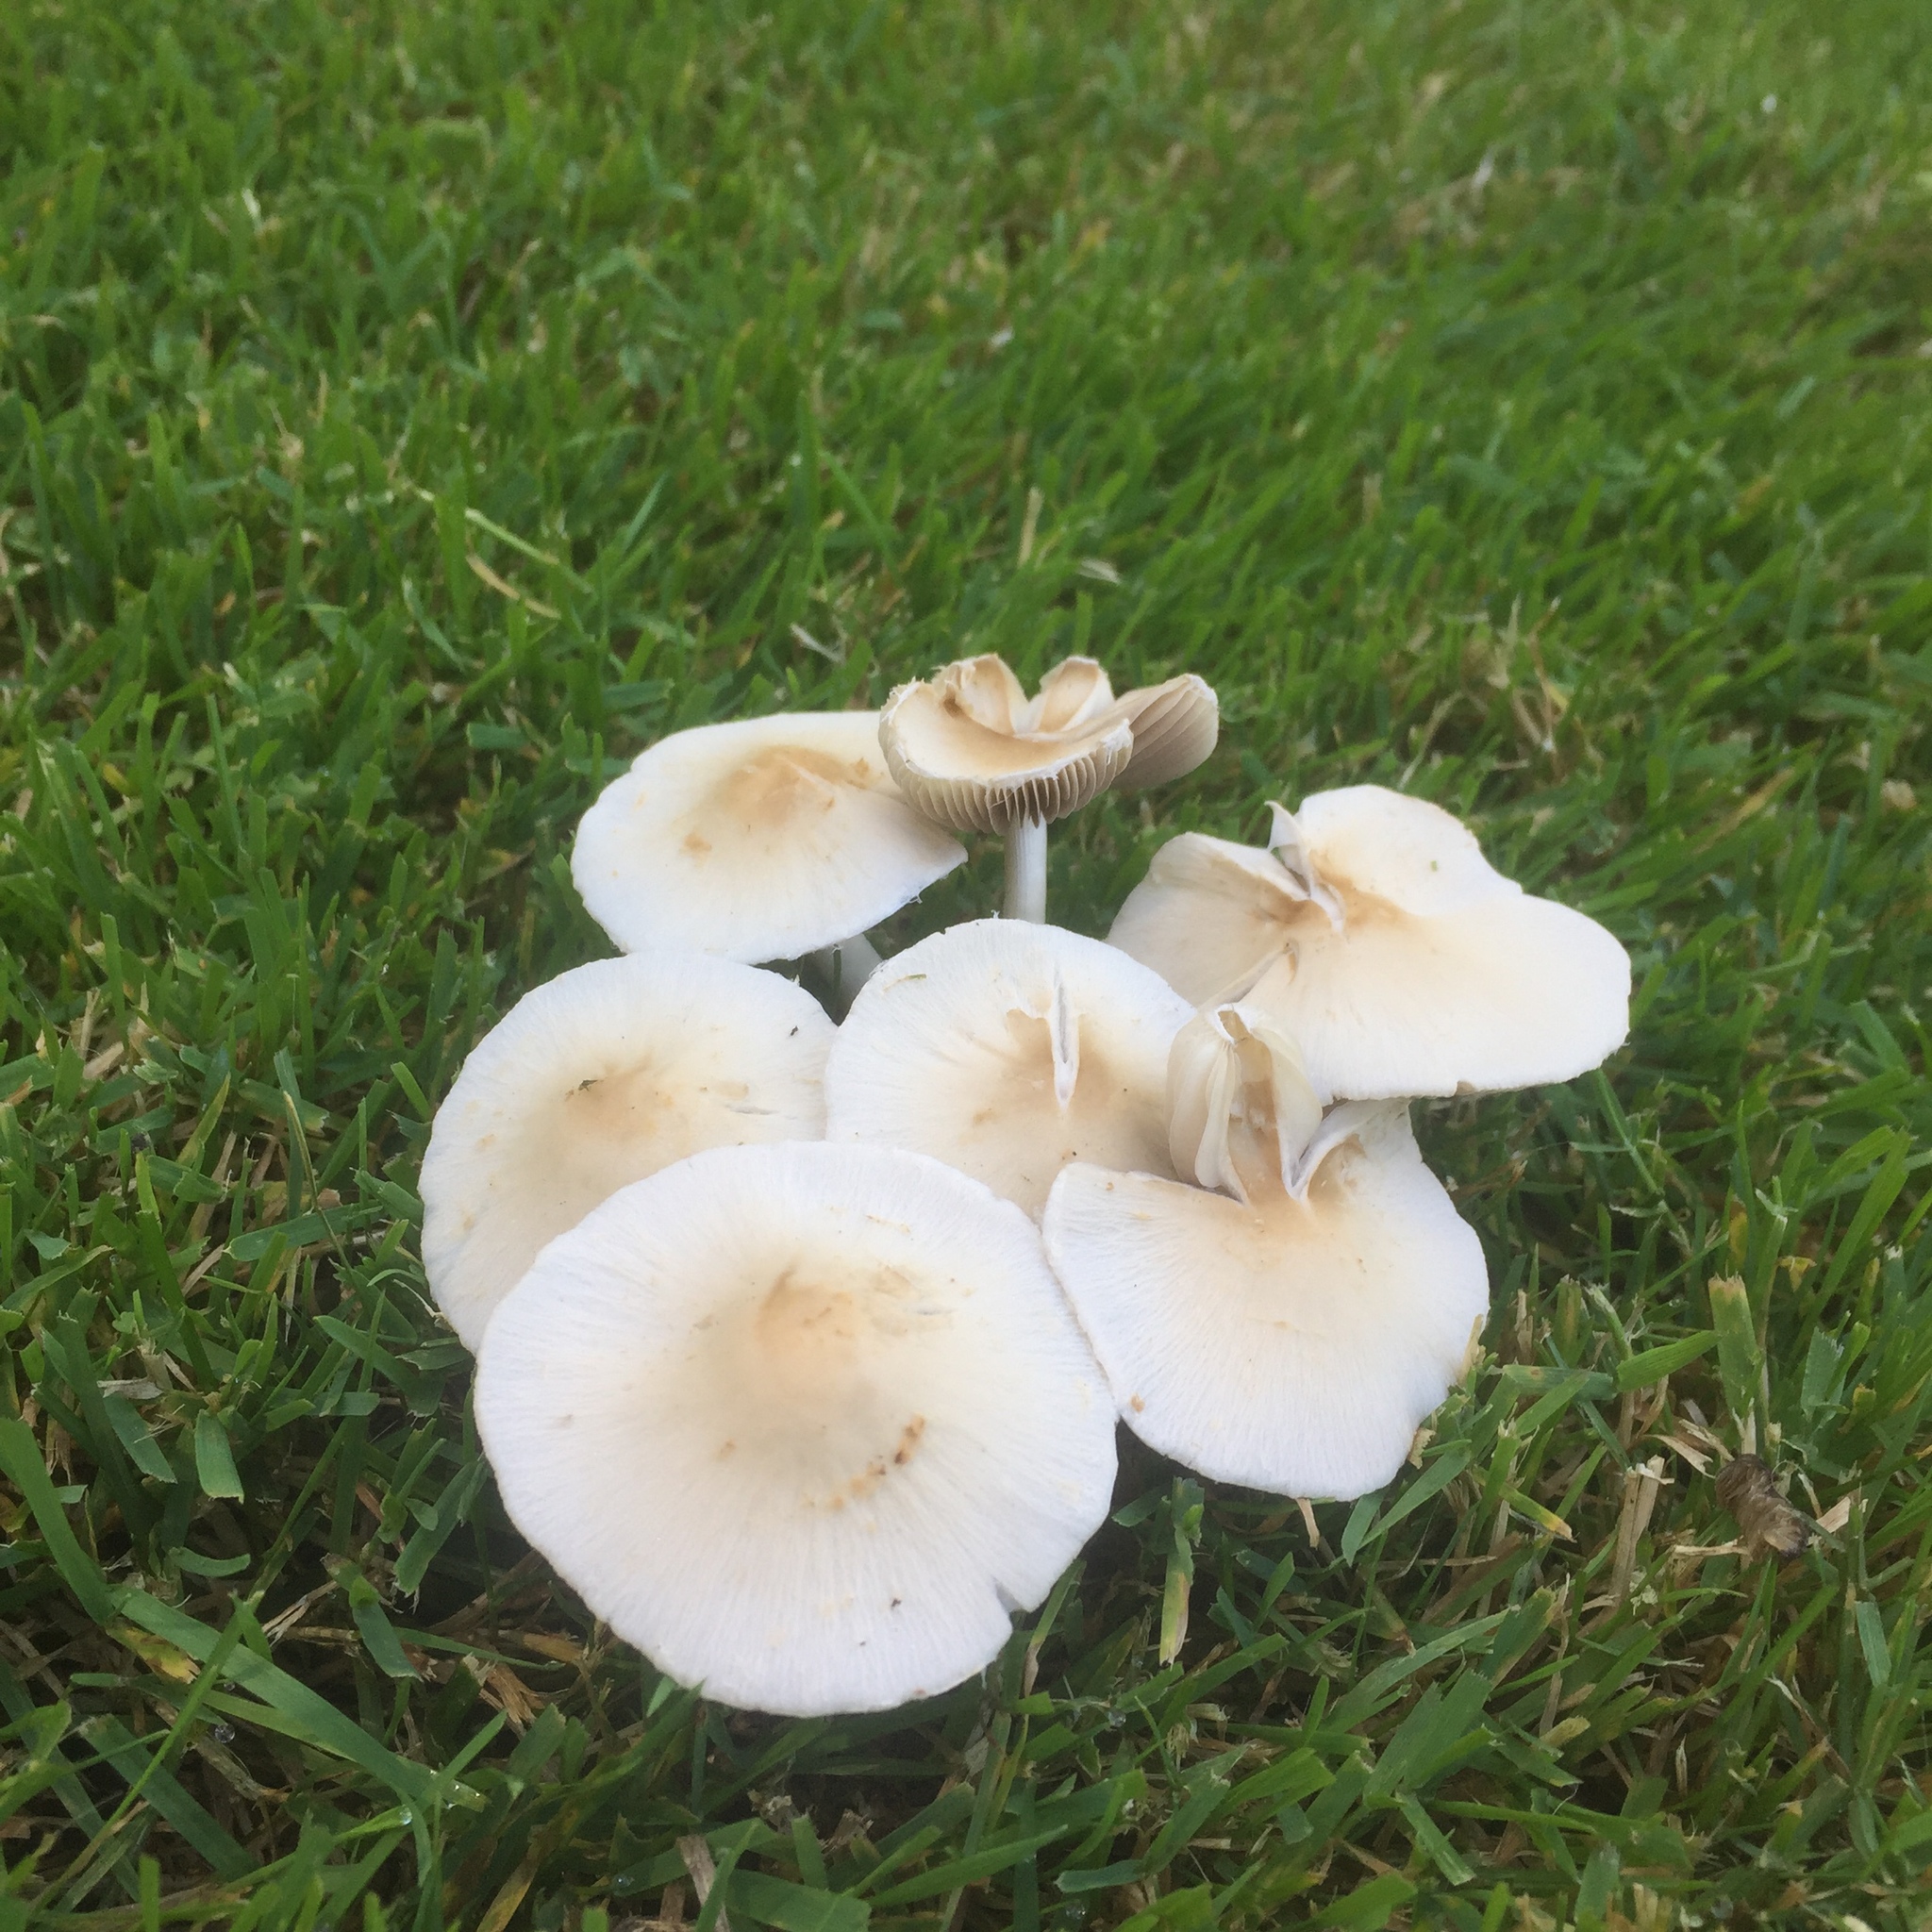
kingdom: Fungi
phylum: Basidiomycota
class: Agaricomycetes
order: Agaricales
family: Psathyrellaceae
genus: Candolleomyces
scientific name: Candolleomyces candolleanus
